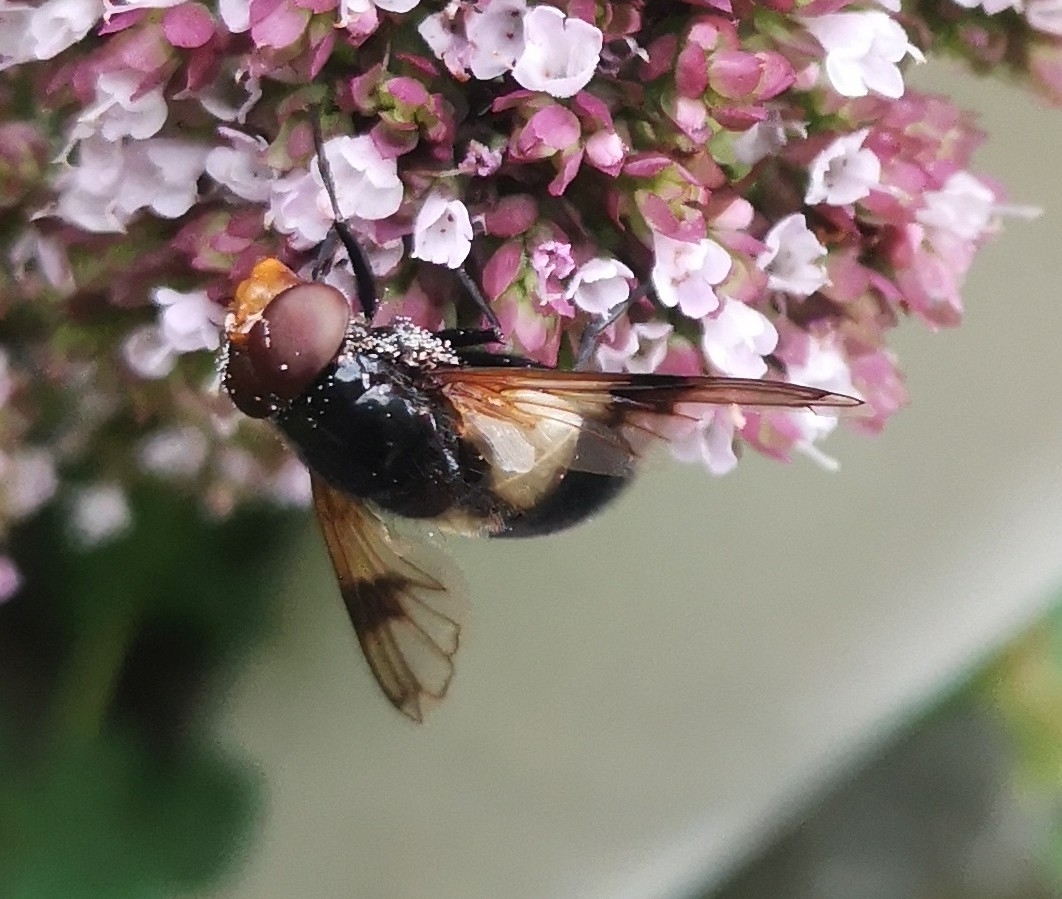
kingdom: Animalia
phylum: Arthropoda
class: Insecta
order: Diptera
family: Syrphidae
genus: Volucella
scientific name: Volucella pellucens
